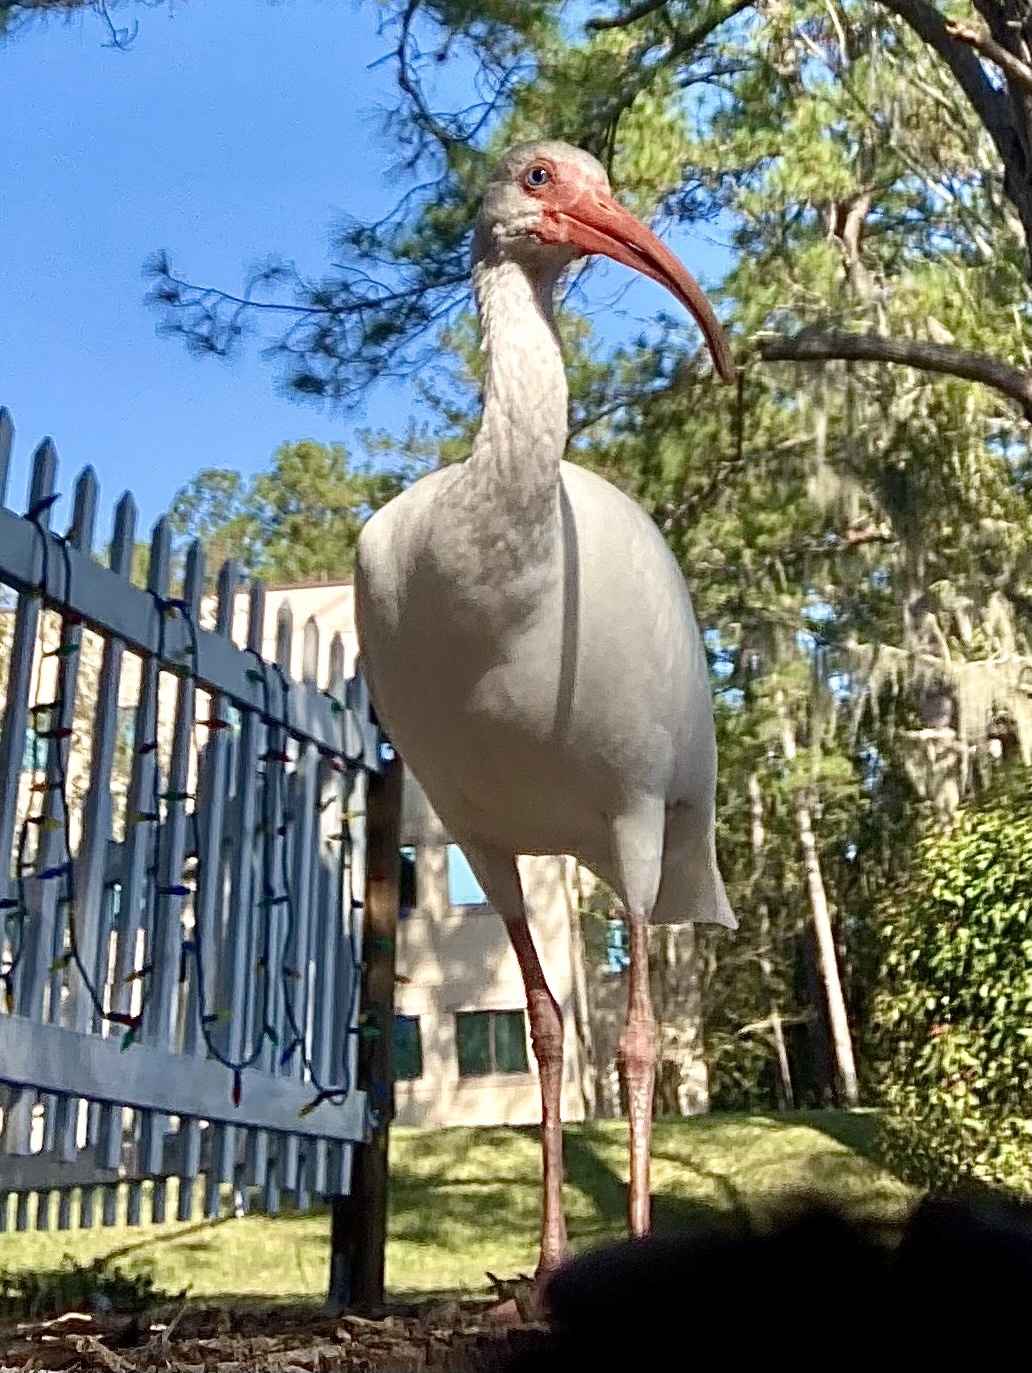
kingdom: Animalia
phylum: Chordata
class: Aves
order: Pelecaniformes
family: Threskiornithidae
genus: Eudocimus
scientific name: Eudocimus albus
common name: White ibis
